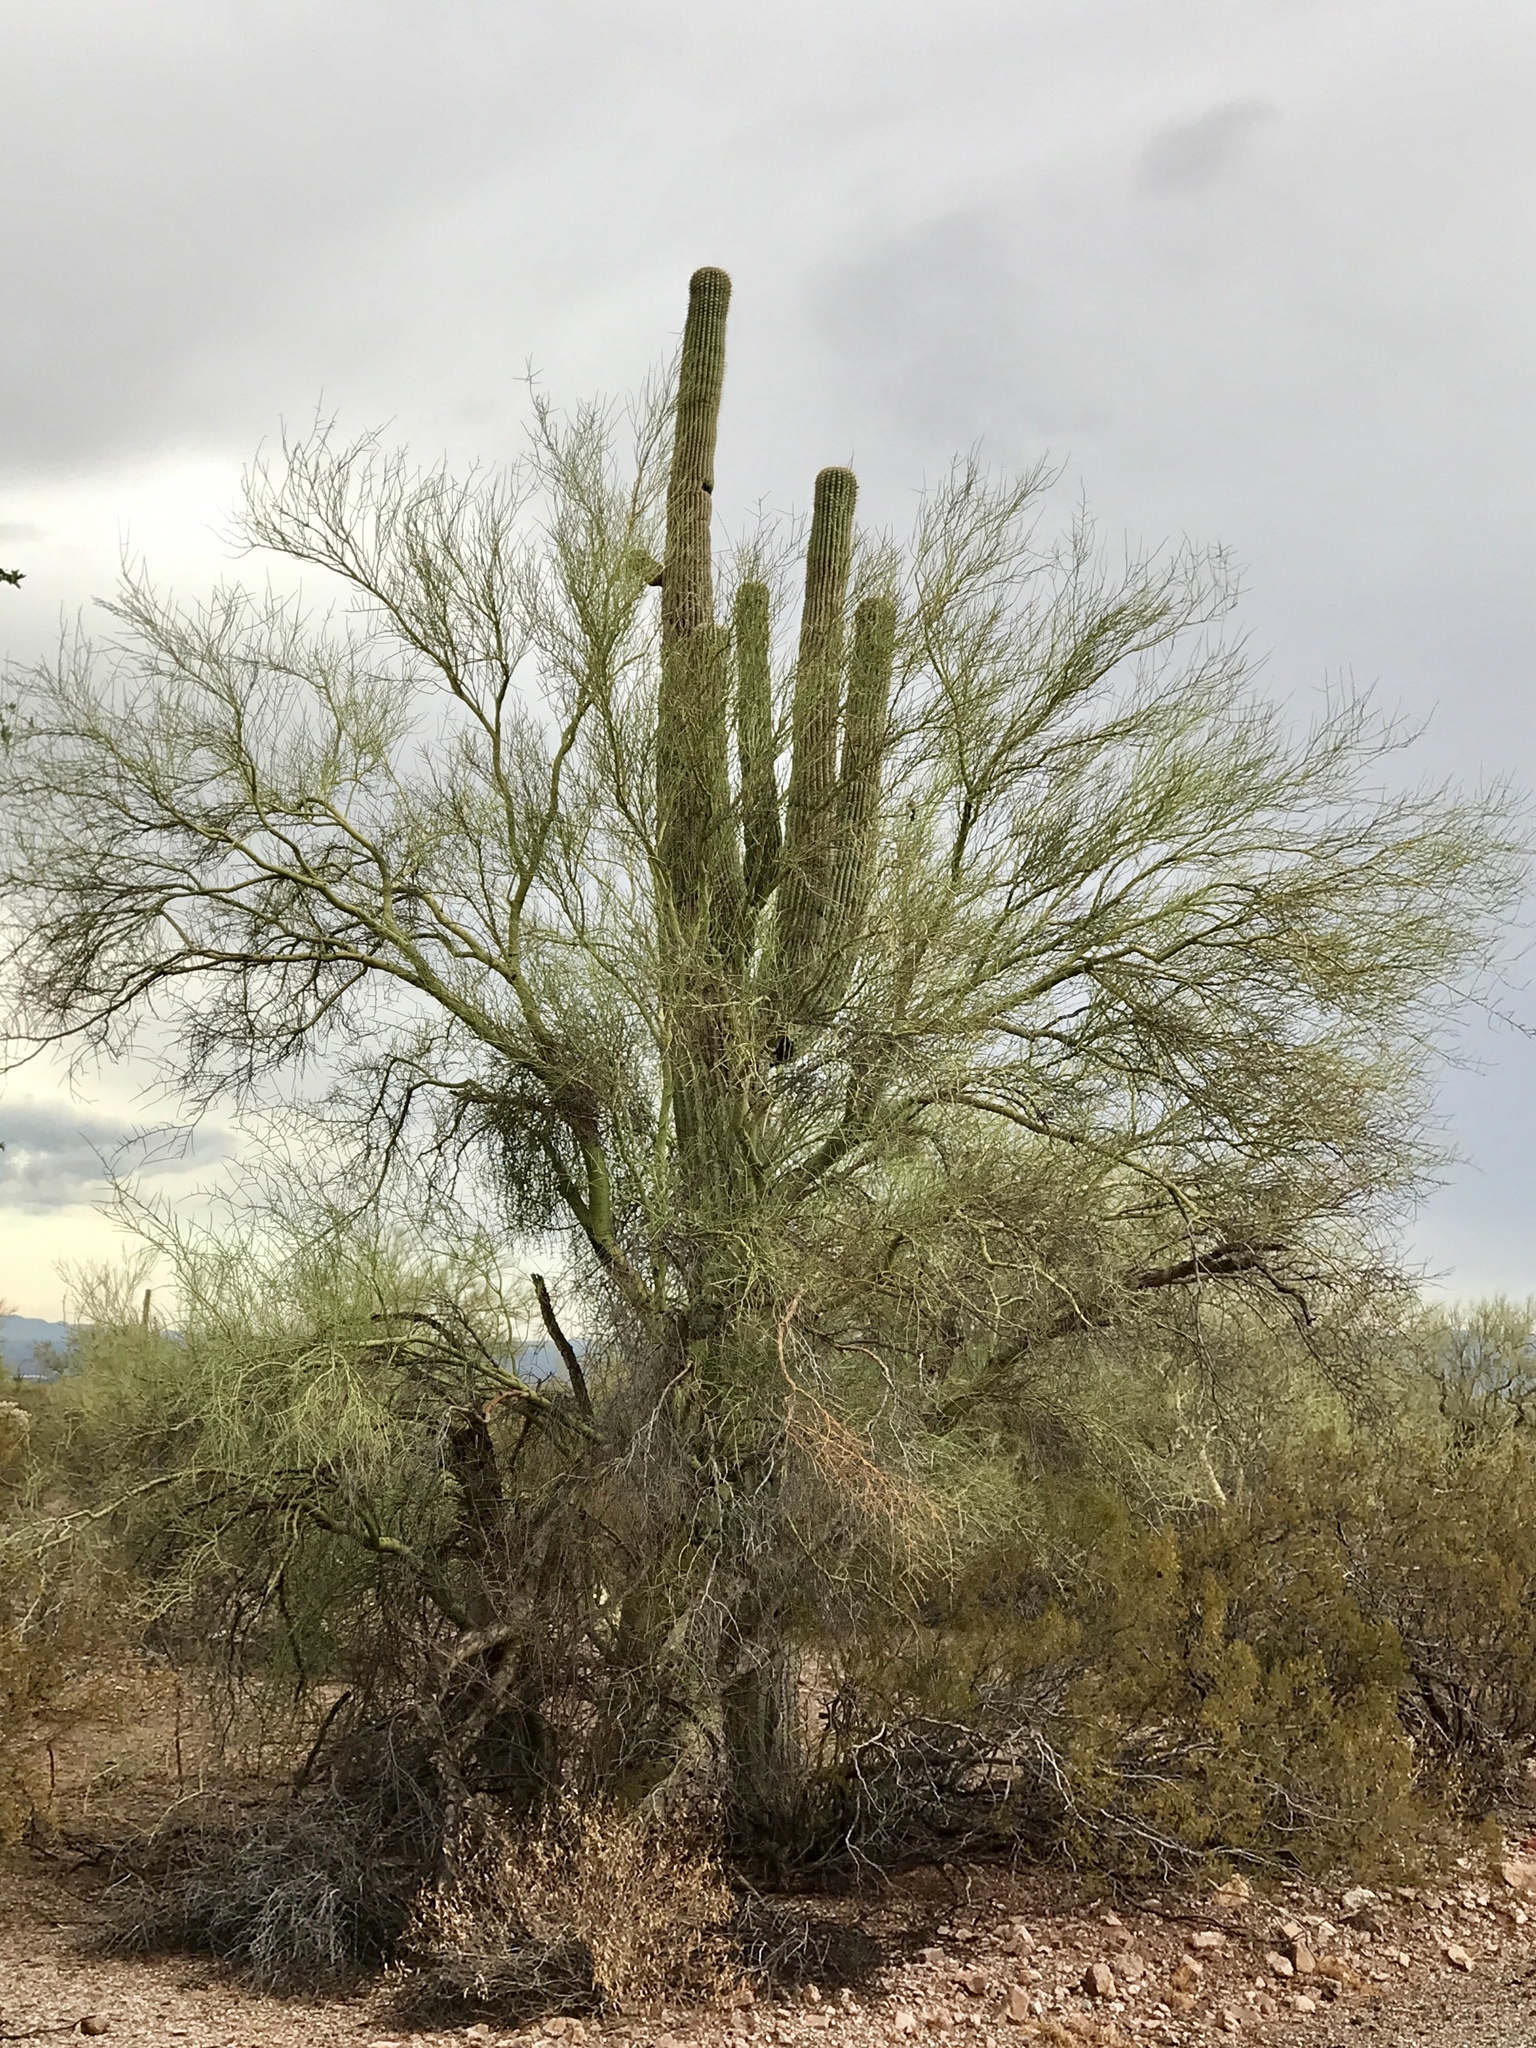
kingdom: Plantae
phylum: Tracheophyta
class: Magnoliopsida
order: Fabales
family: Fabaceae
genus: Parkinsonia
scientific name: Parkinsonia microphylla
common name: Yellow paloverde
